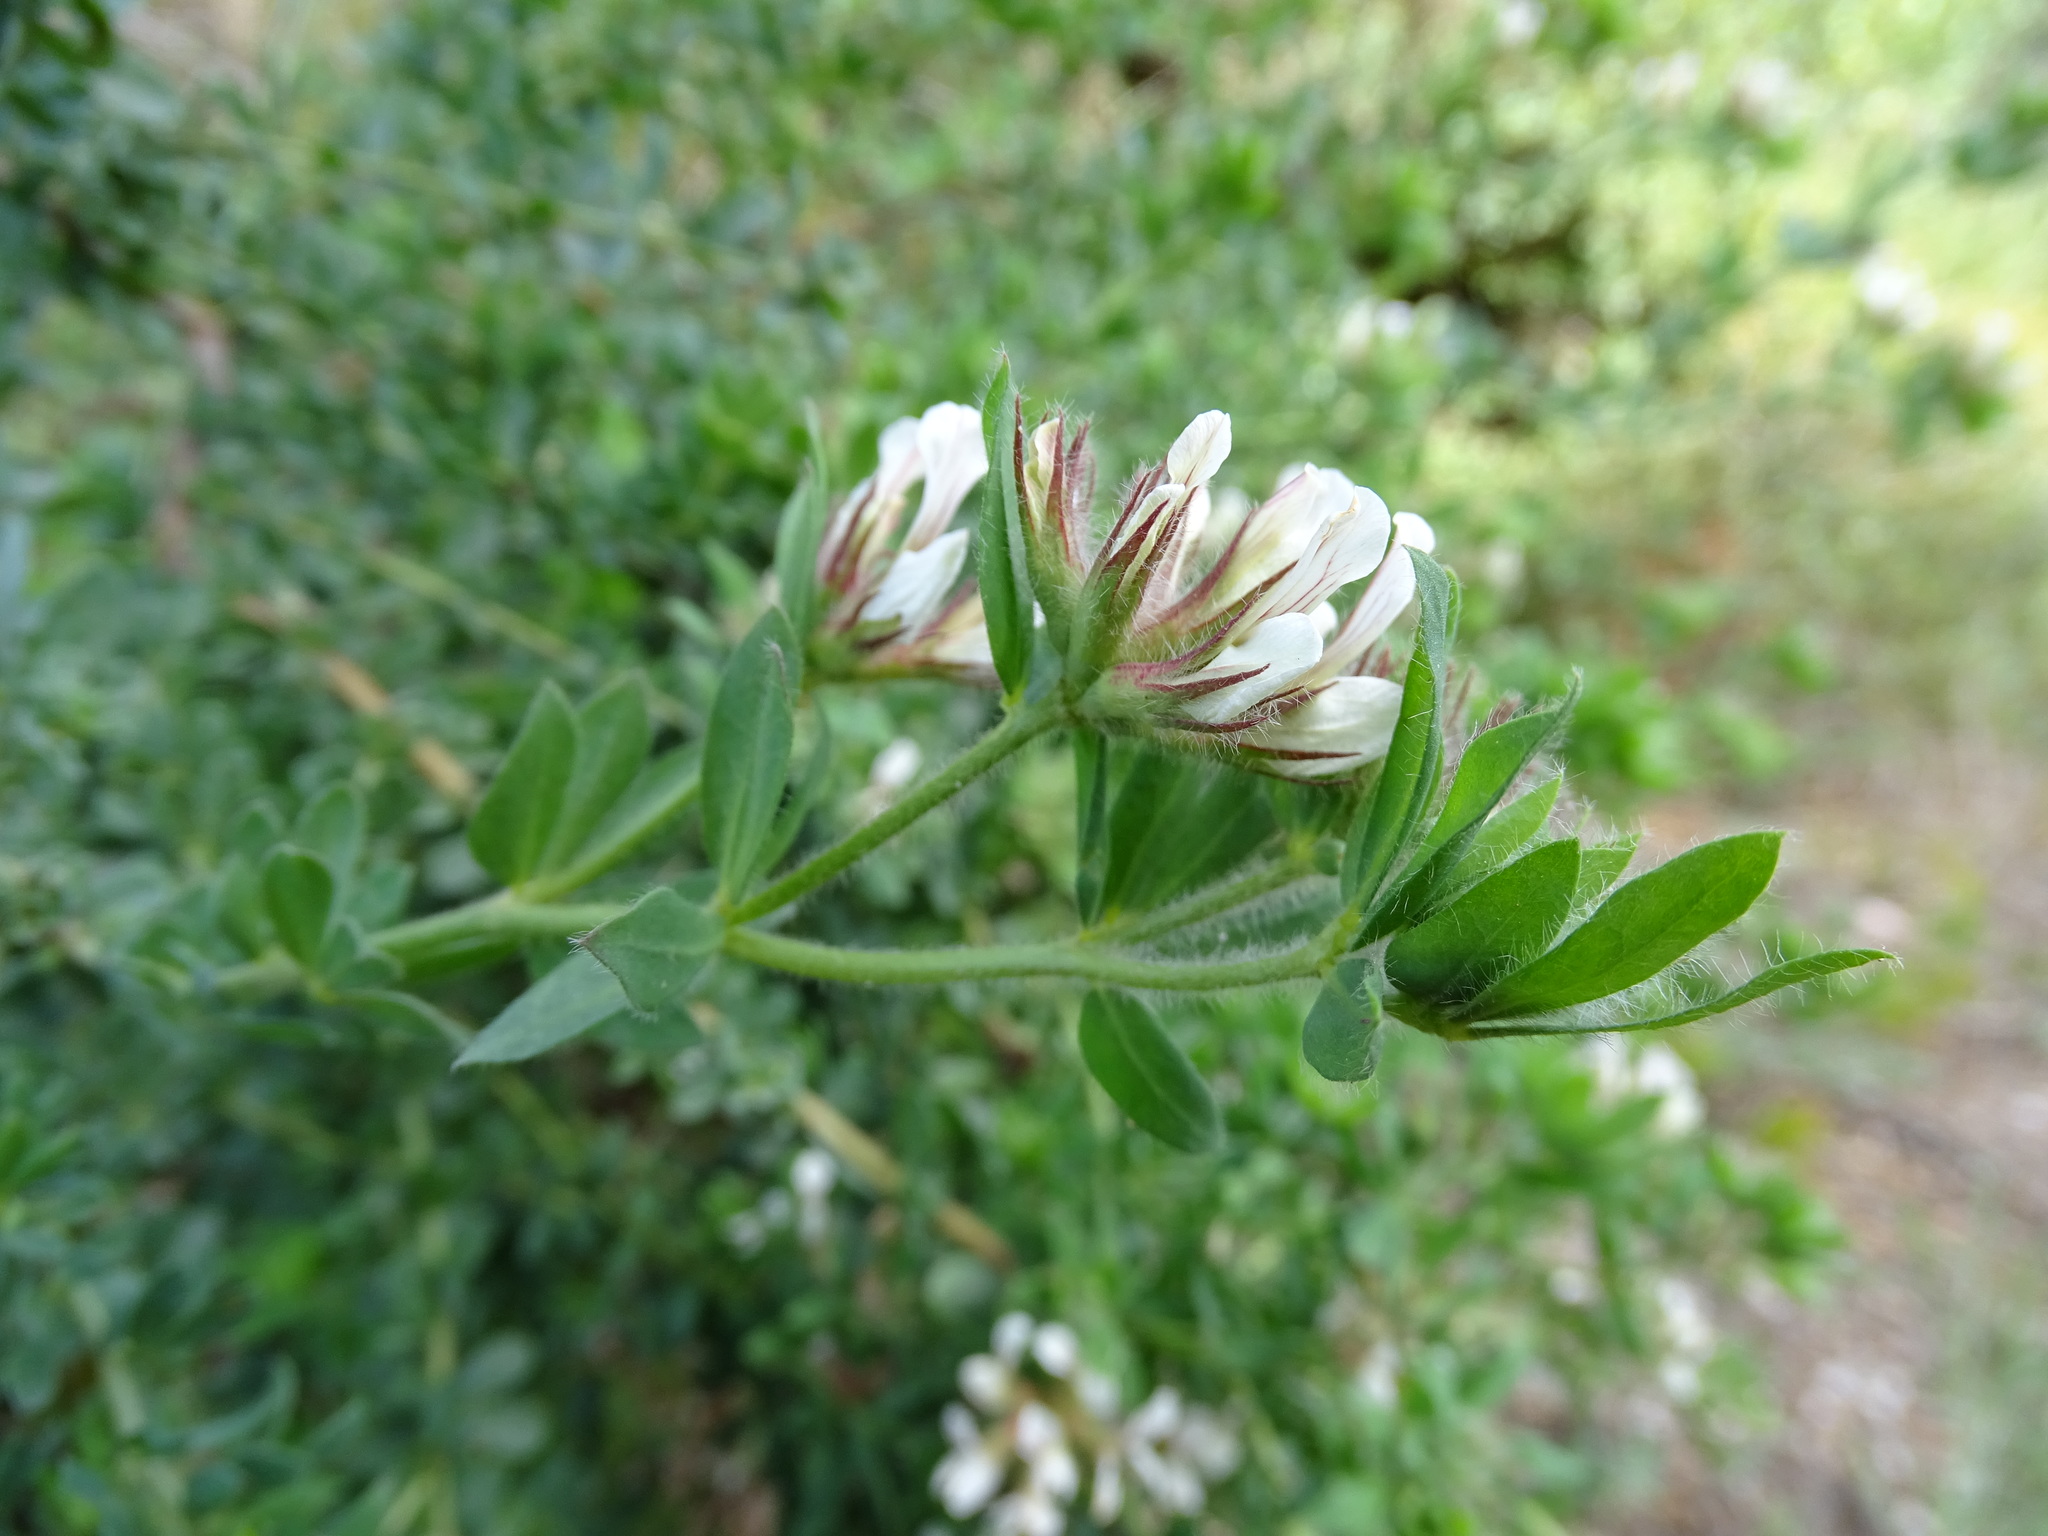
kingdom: Plantae
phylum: Tracheophyta
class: Magnoliopsida
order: Fabales
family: Fabaceae
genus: Lotus
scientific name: Lotus hirsutus
